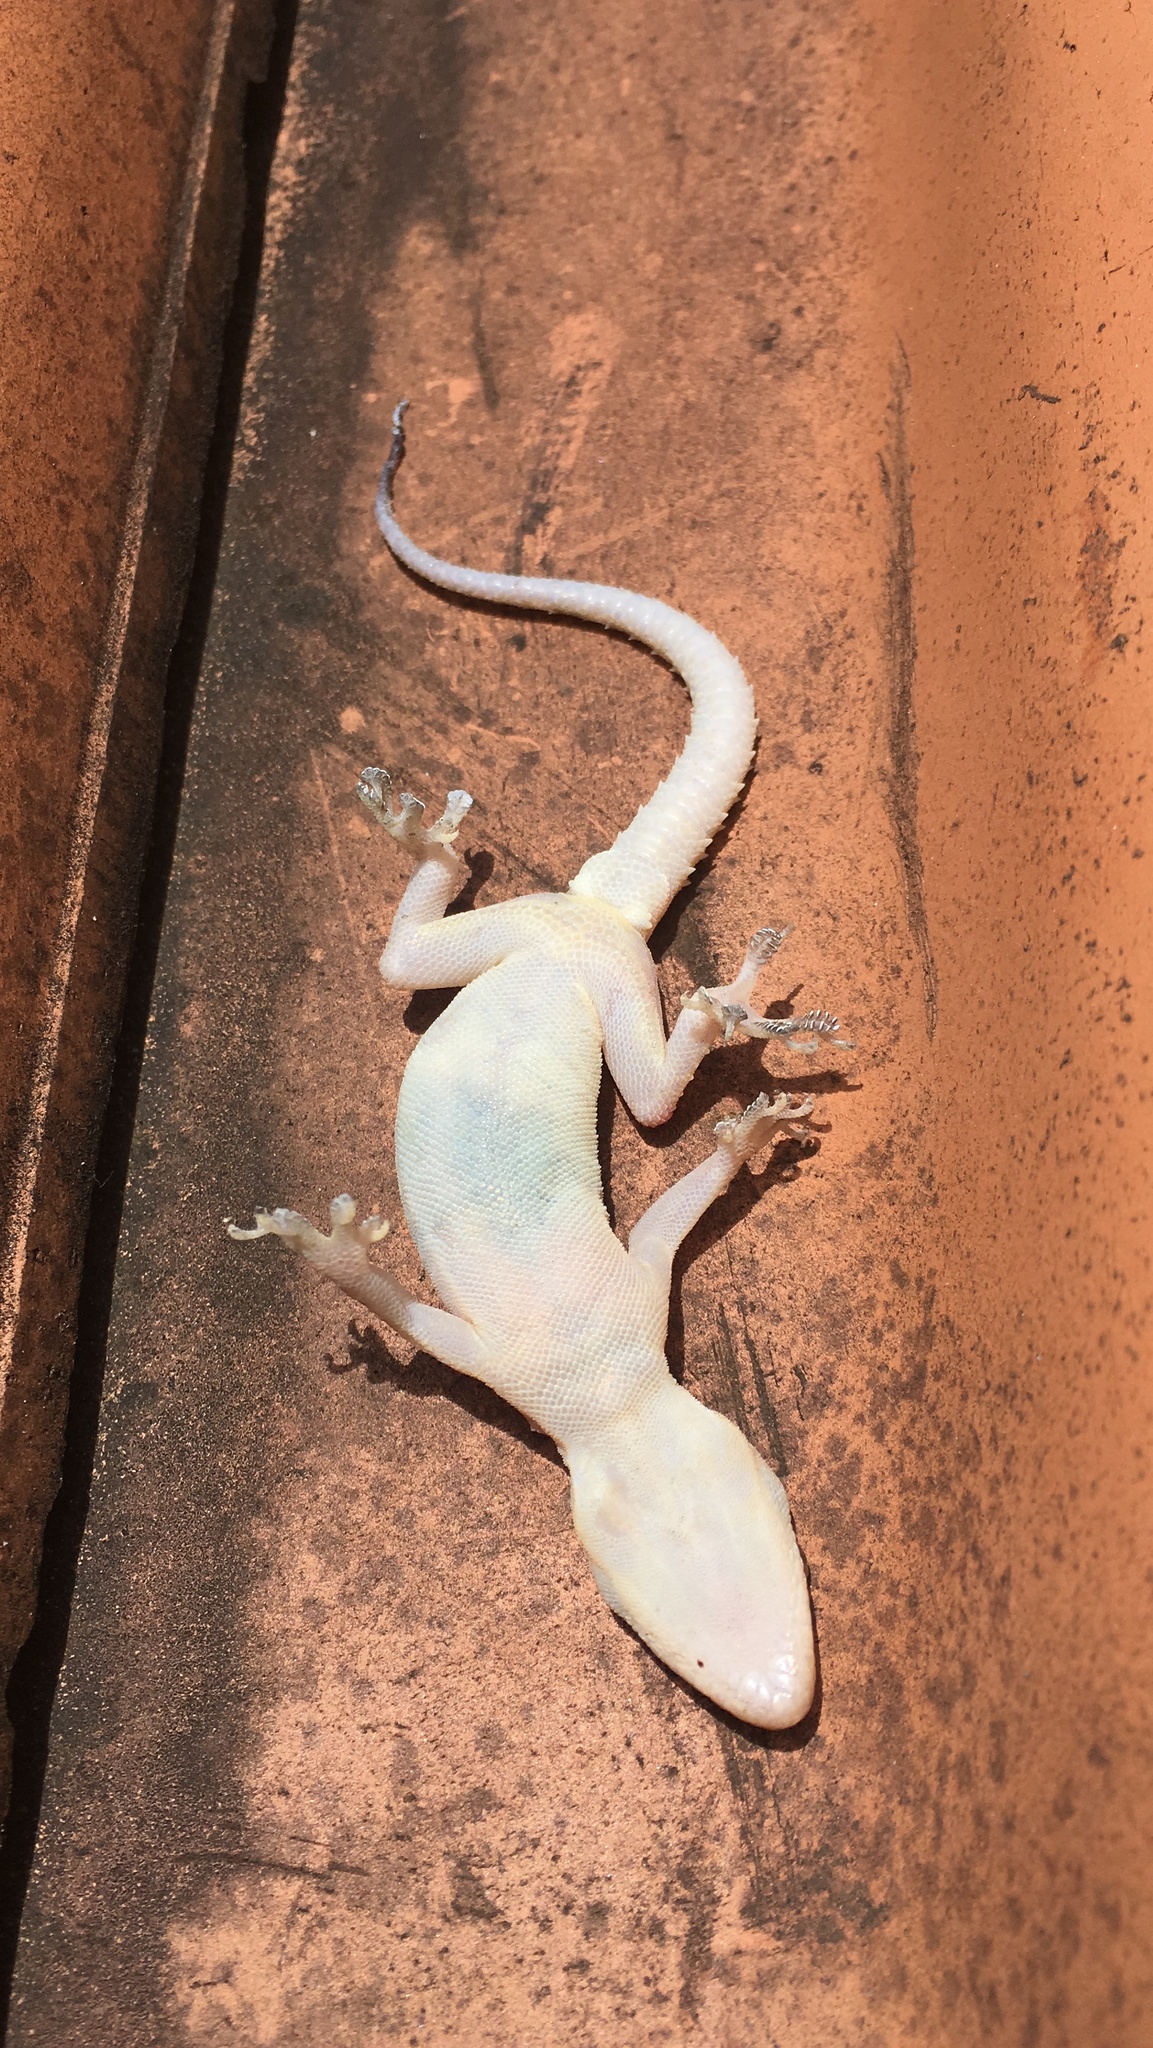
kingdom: Animalia
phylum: Chordata
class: Squamata
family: Gekkonidae
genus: Hemidactylus
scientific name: Hemidactylus mabouia
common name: House gecko
